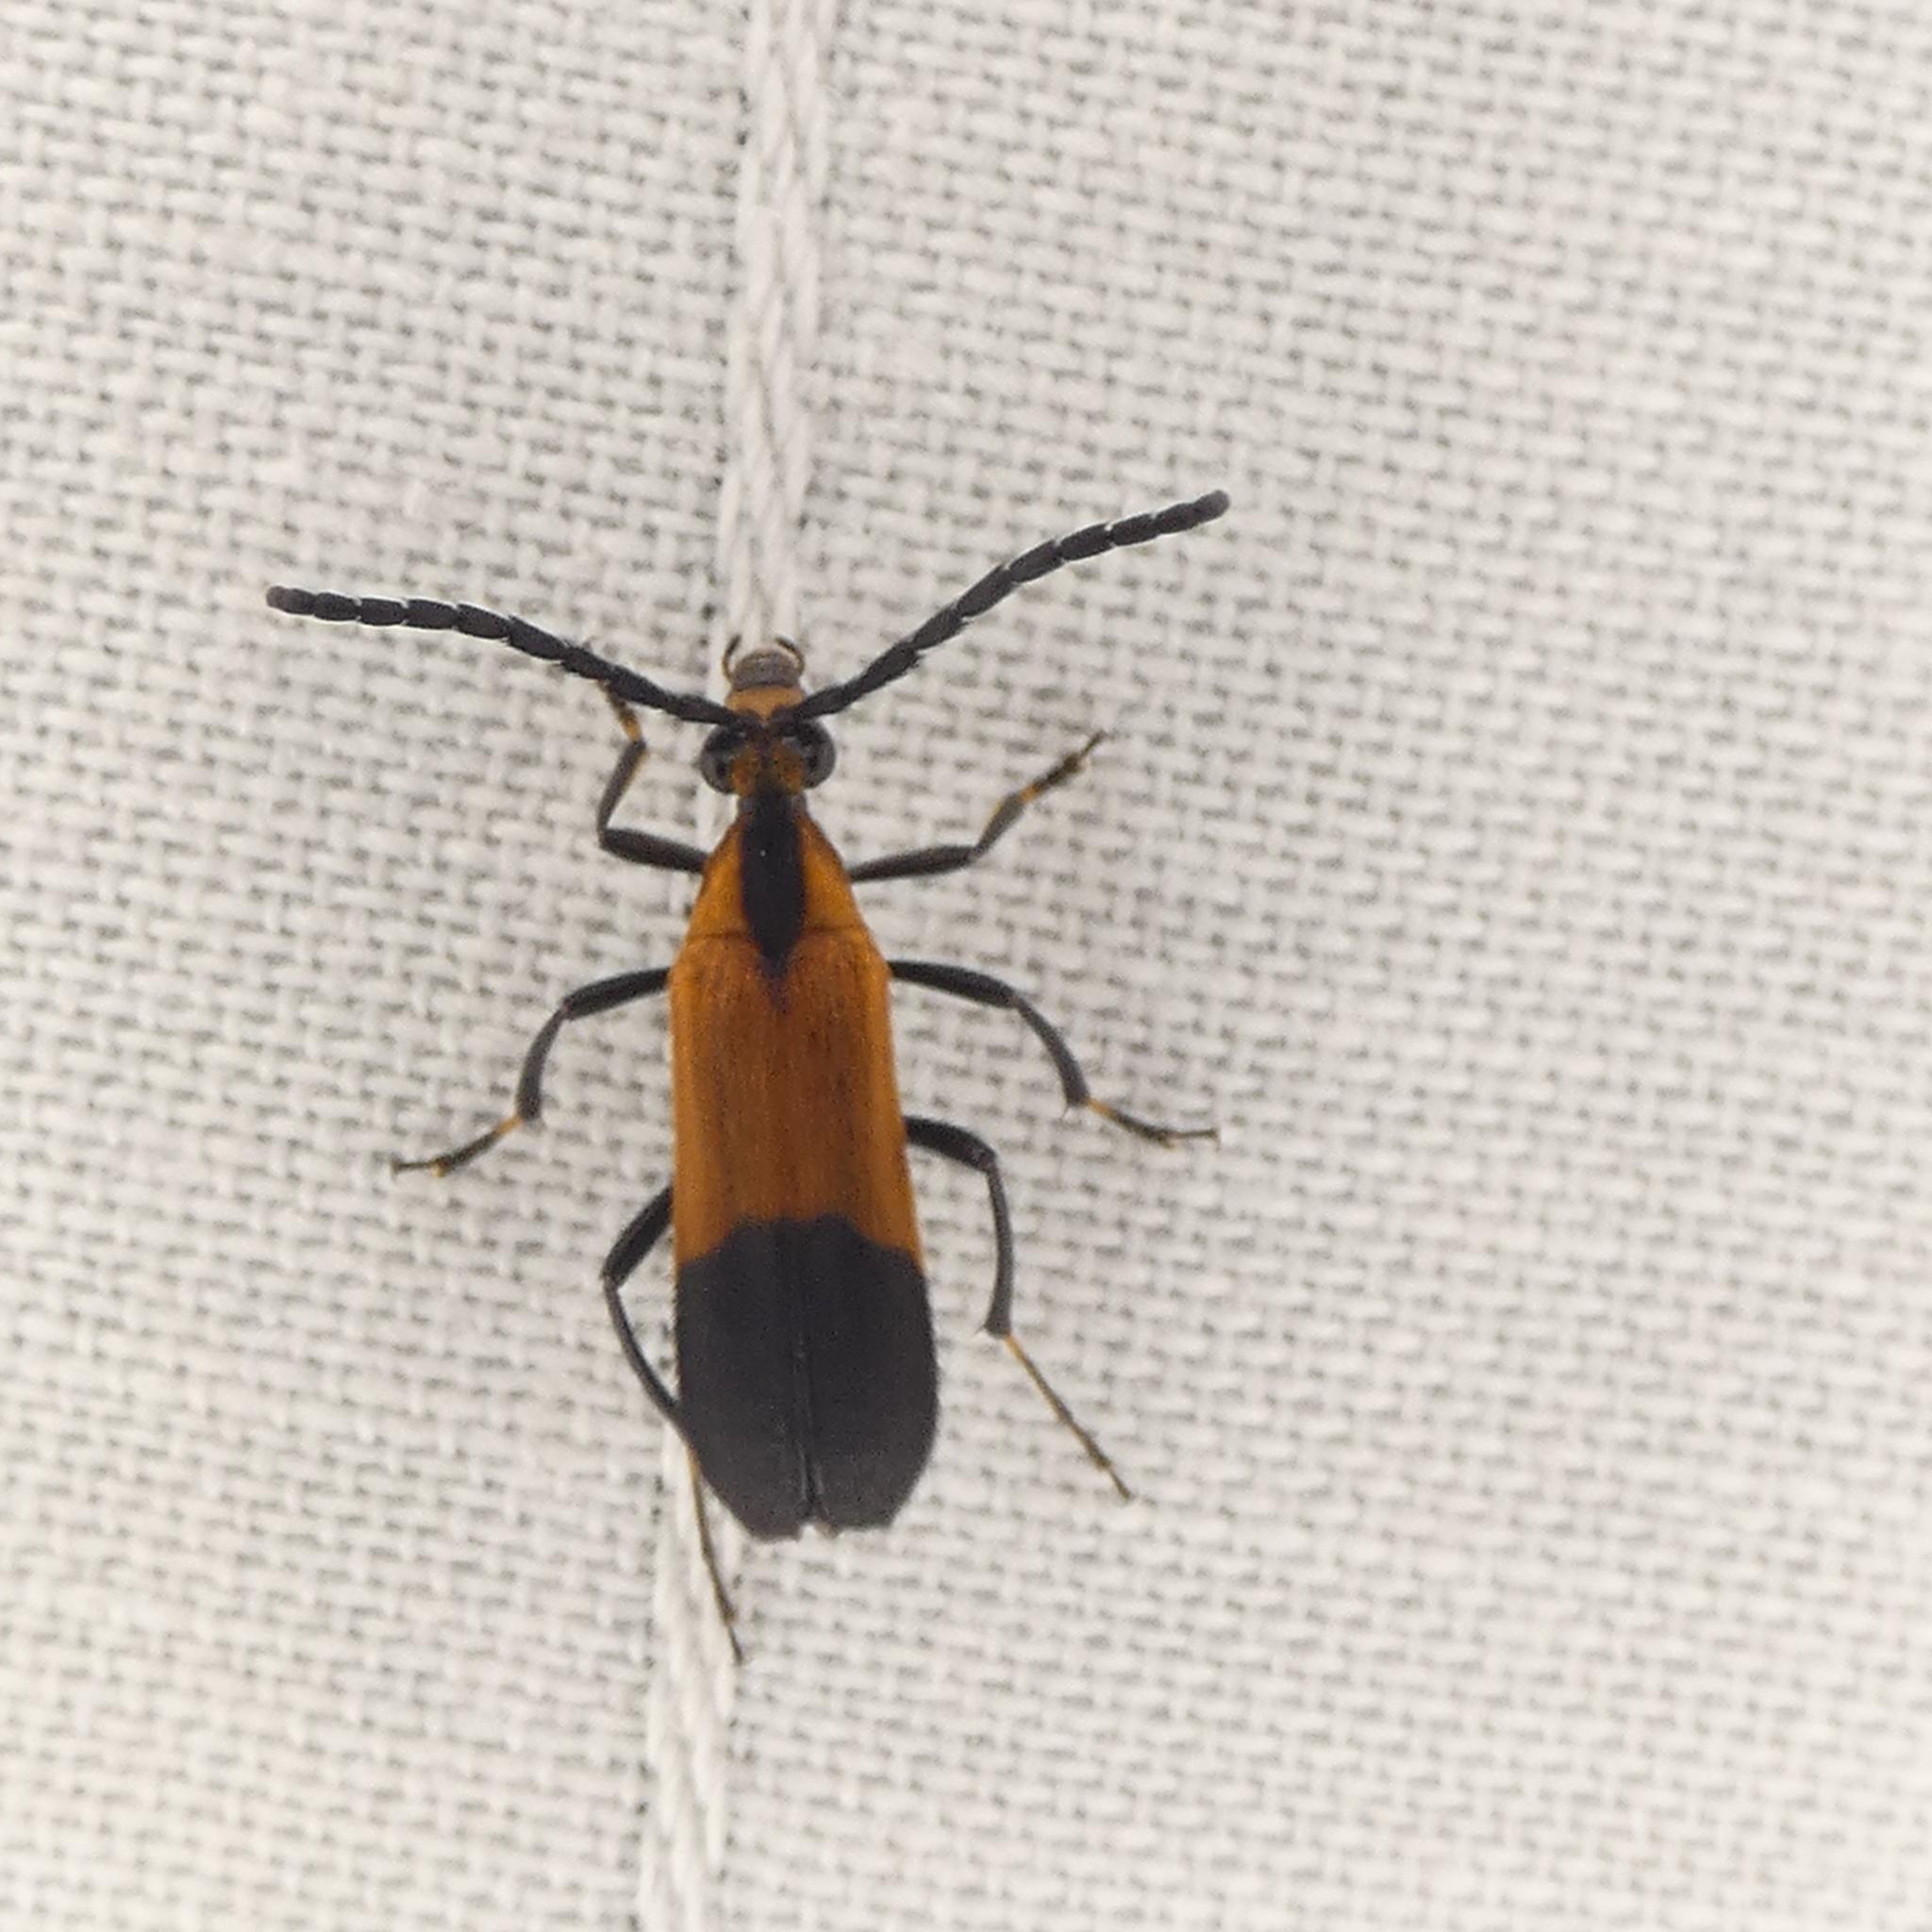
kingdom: Animalia
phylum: Arthropoda
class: Insecta
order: Coleoptera
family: Cerambycidae
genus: Lycochoriolaus
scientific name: Lycochoriolaus lateralis
